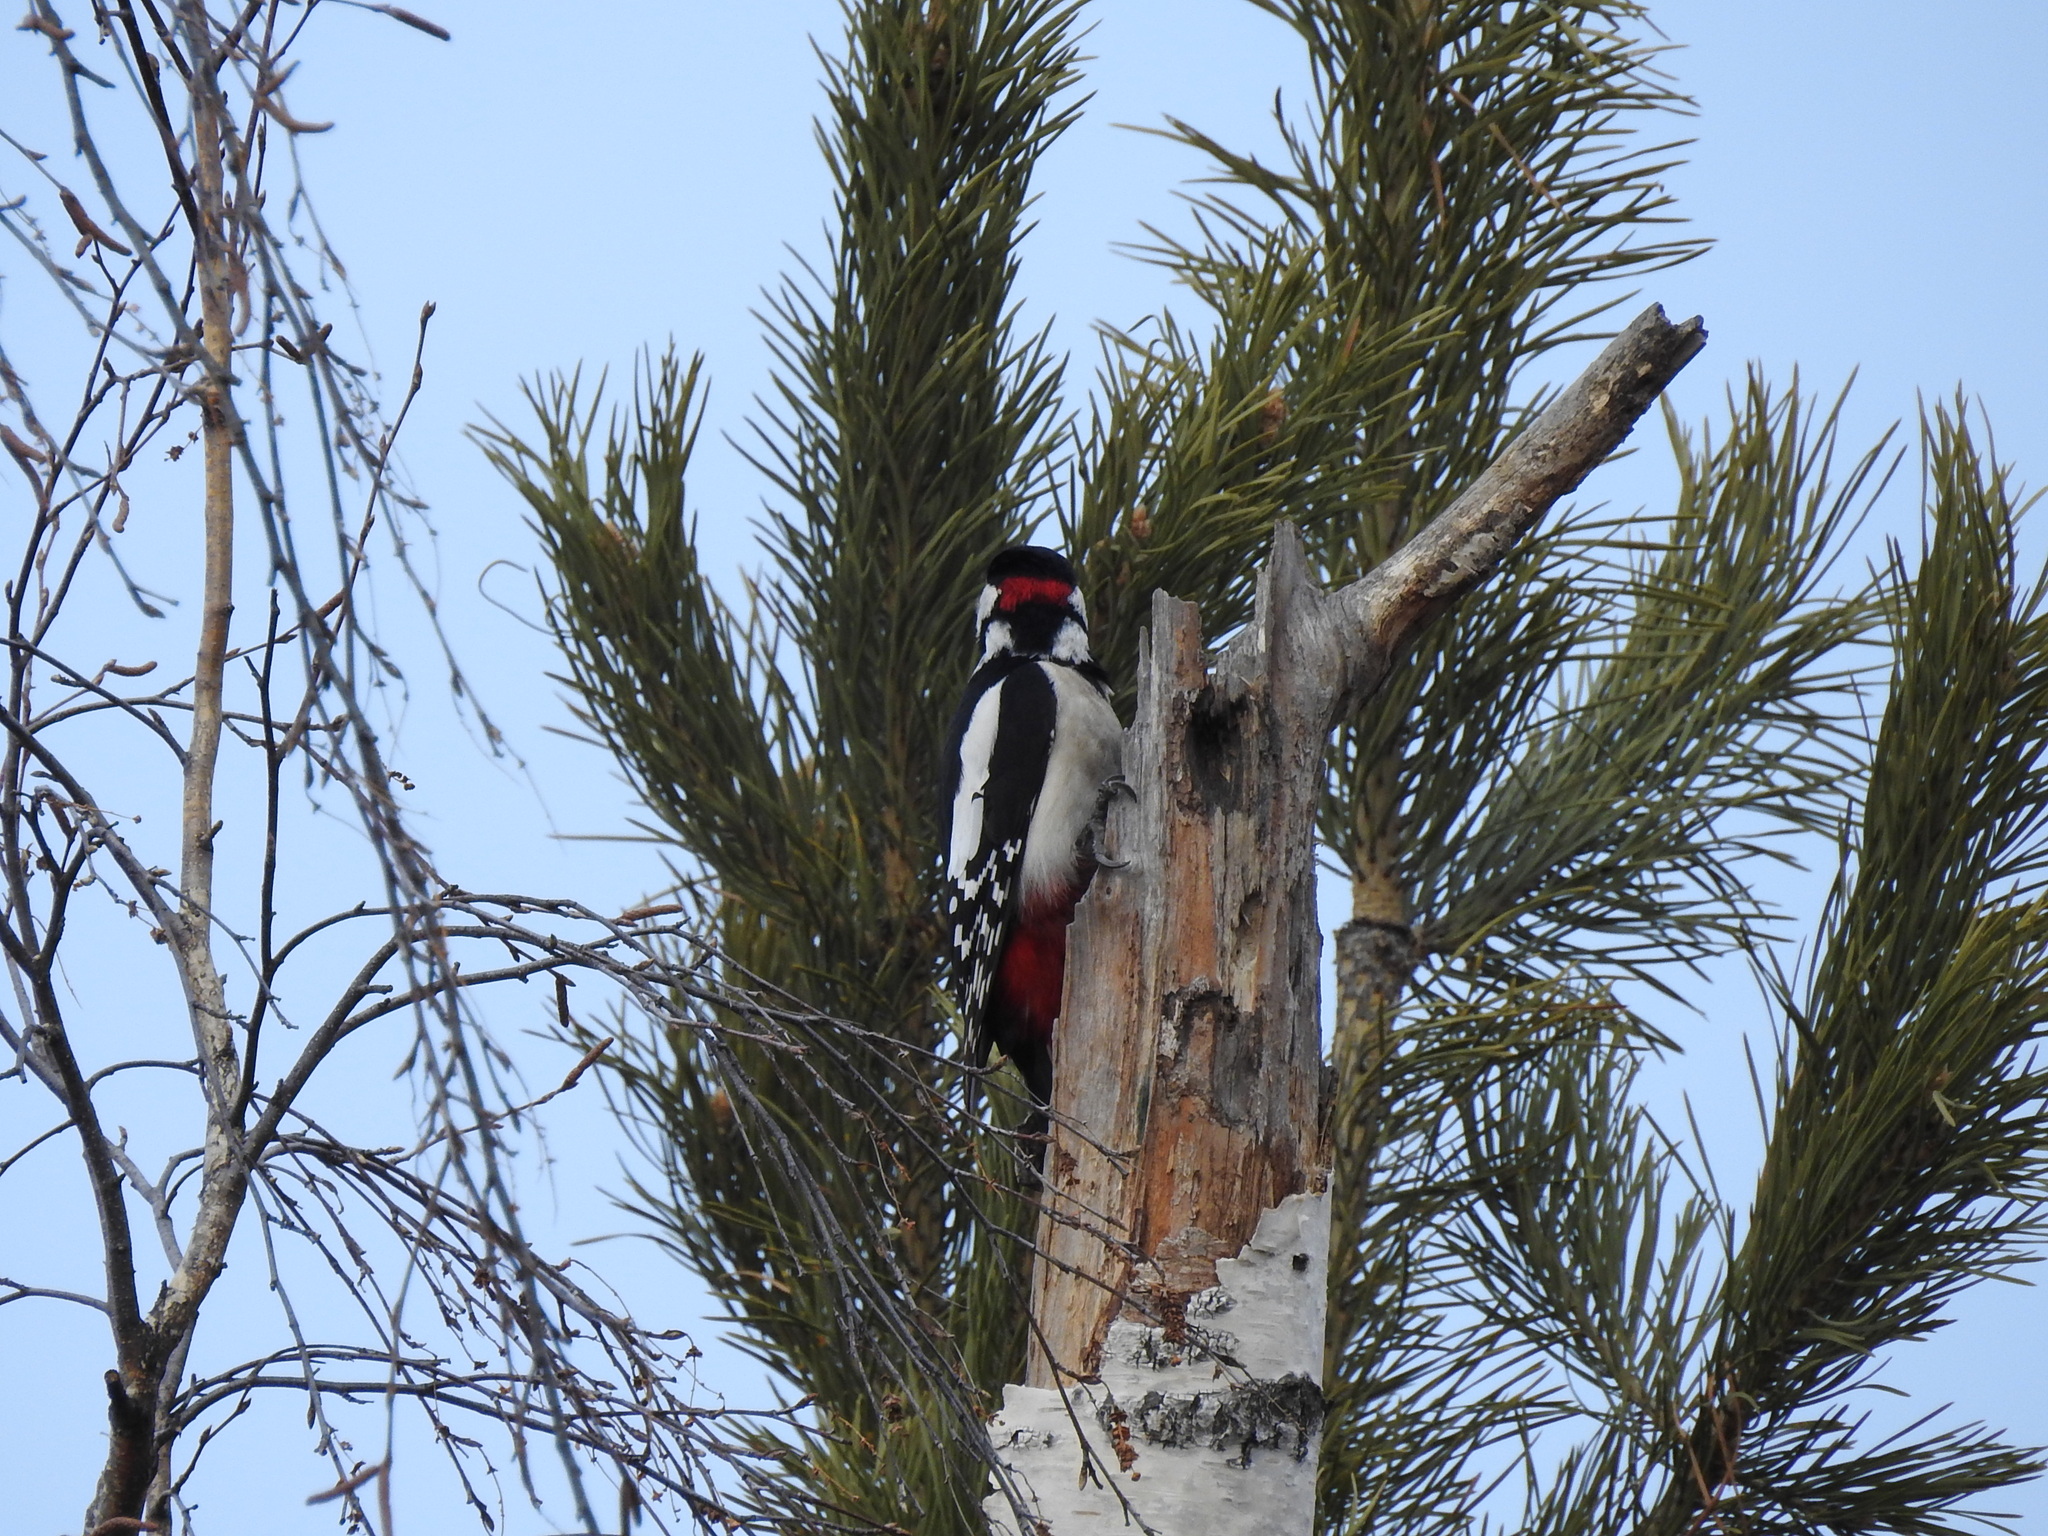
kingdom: Animalia
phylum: Chordata
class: Aves
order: Piciformes
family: Picidae
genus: Dendrocopos
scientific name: Dendrocopos major
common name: Great spotted woodpecker
